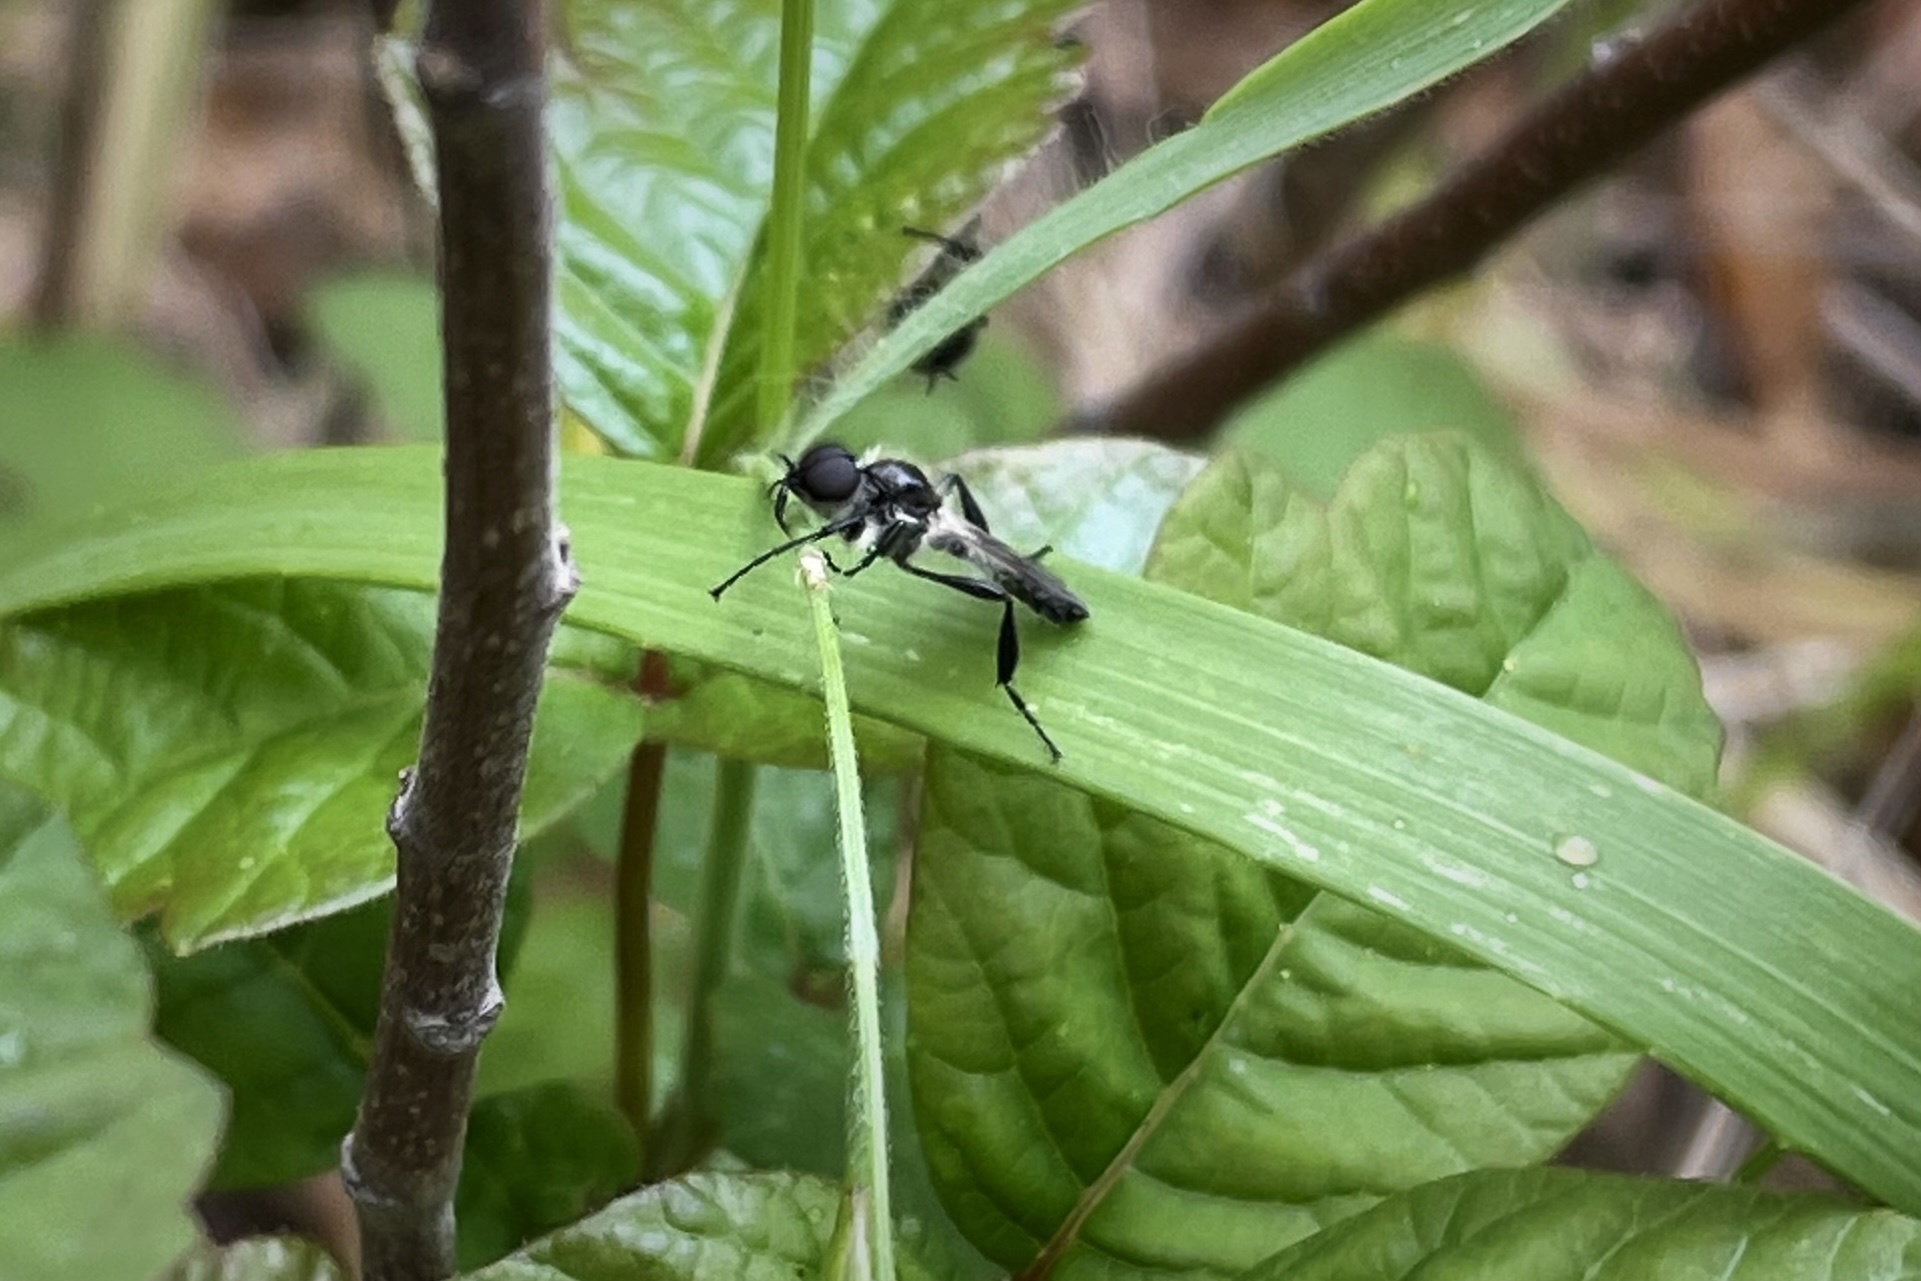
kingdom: Animalia
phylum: Arthropoda
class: Insecta
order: Diptera
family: Bibionidae
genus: Bibio
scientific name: Bibio albipennis
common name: White-winged march fly
